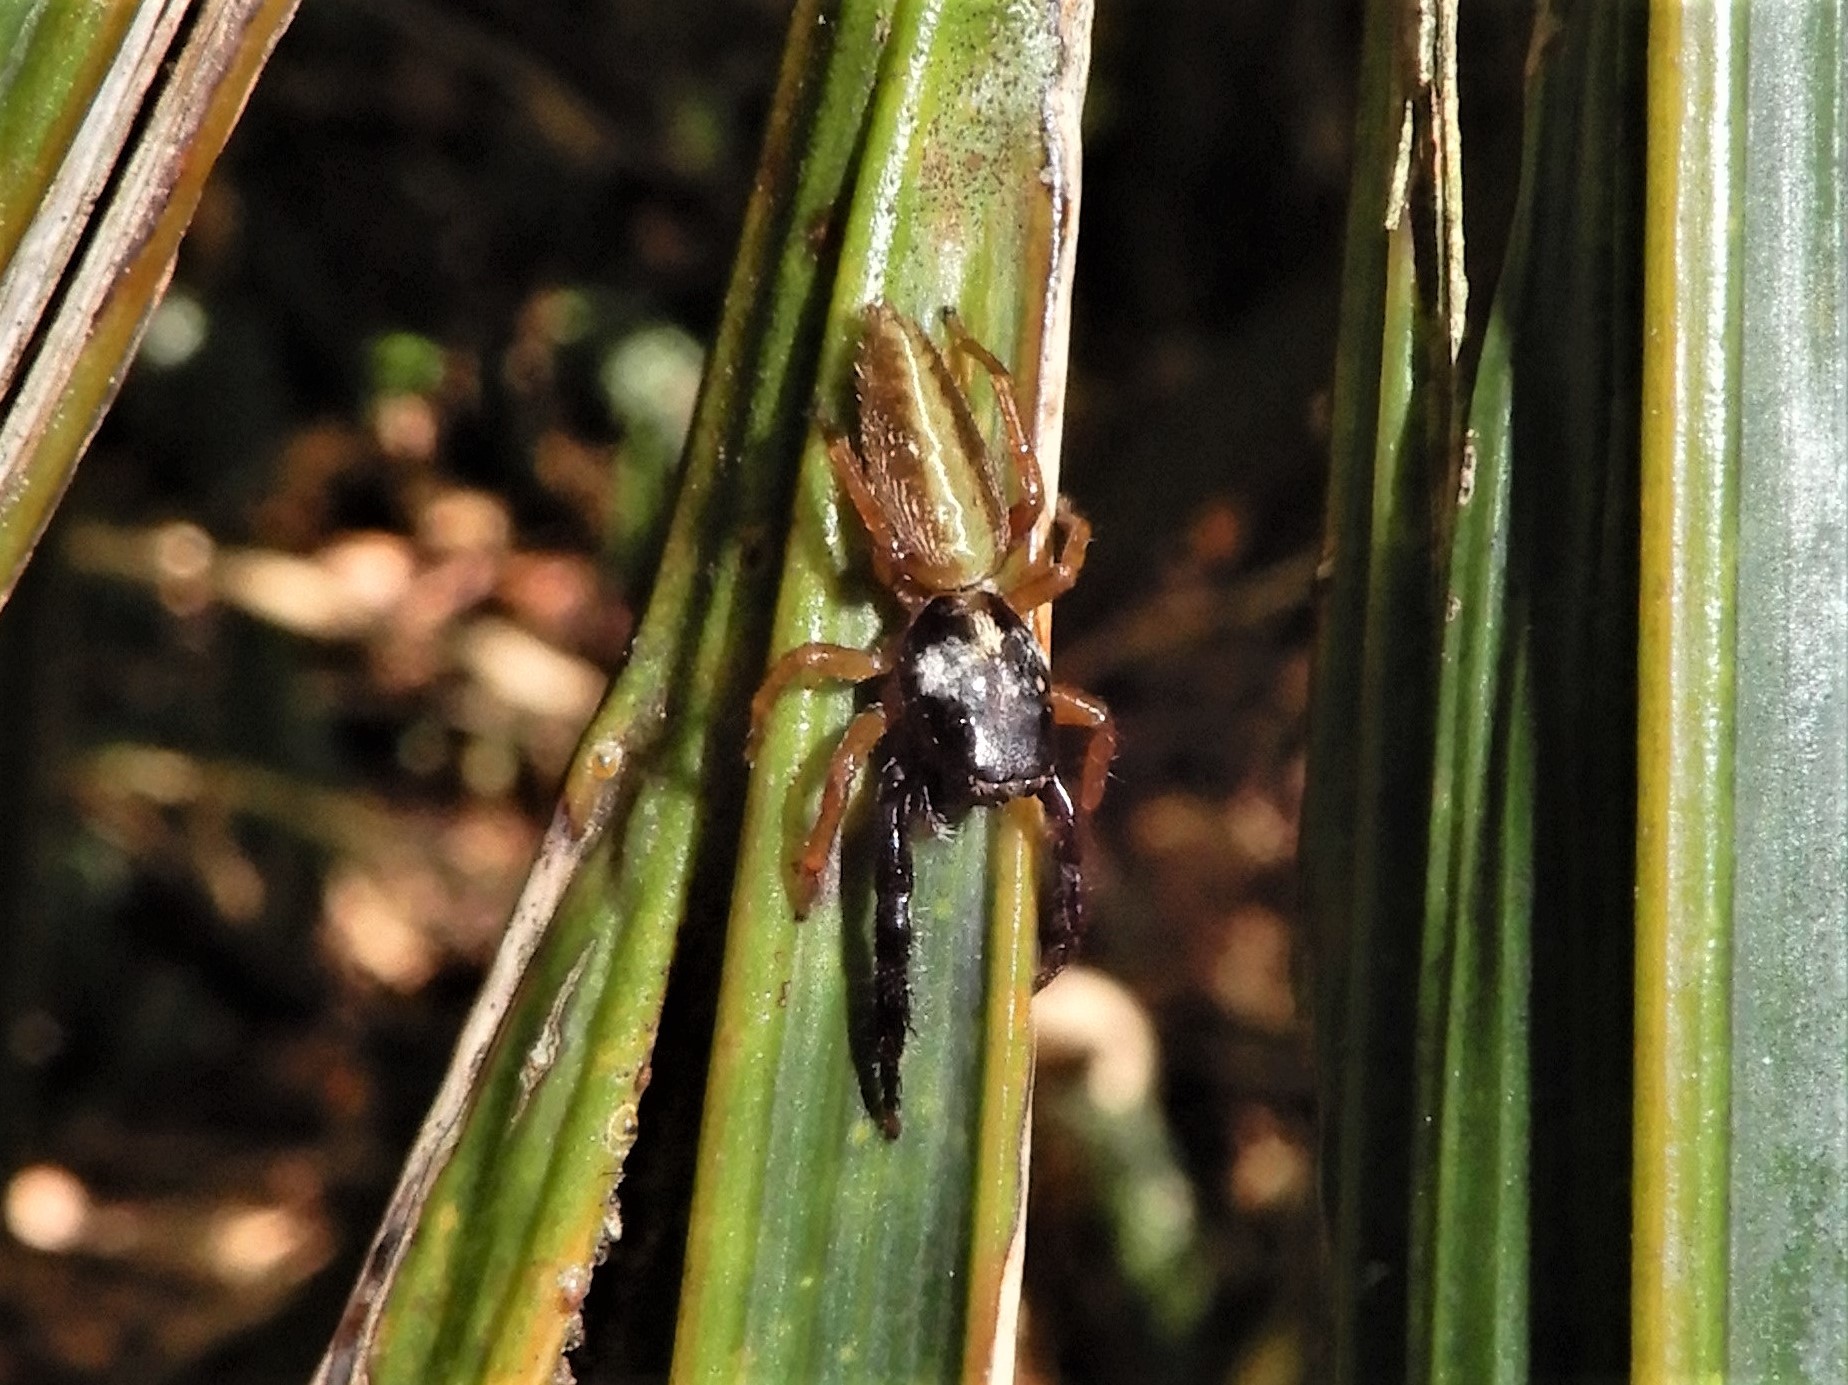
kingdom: Animalia
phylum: Arthropoda
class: Arachnida
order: Araneae
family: Salticidae
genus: Trite
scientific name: Trite planiceps
